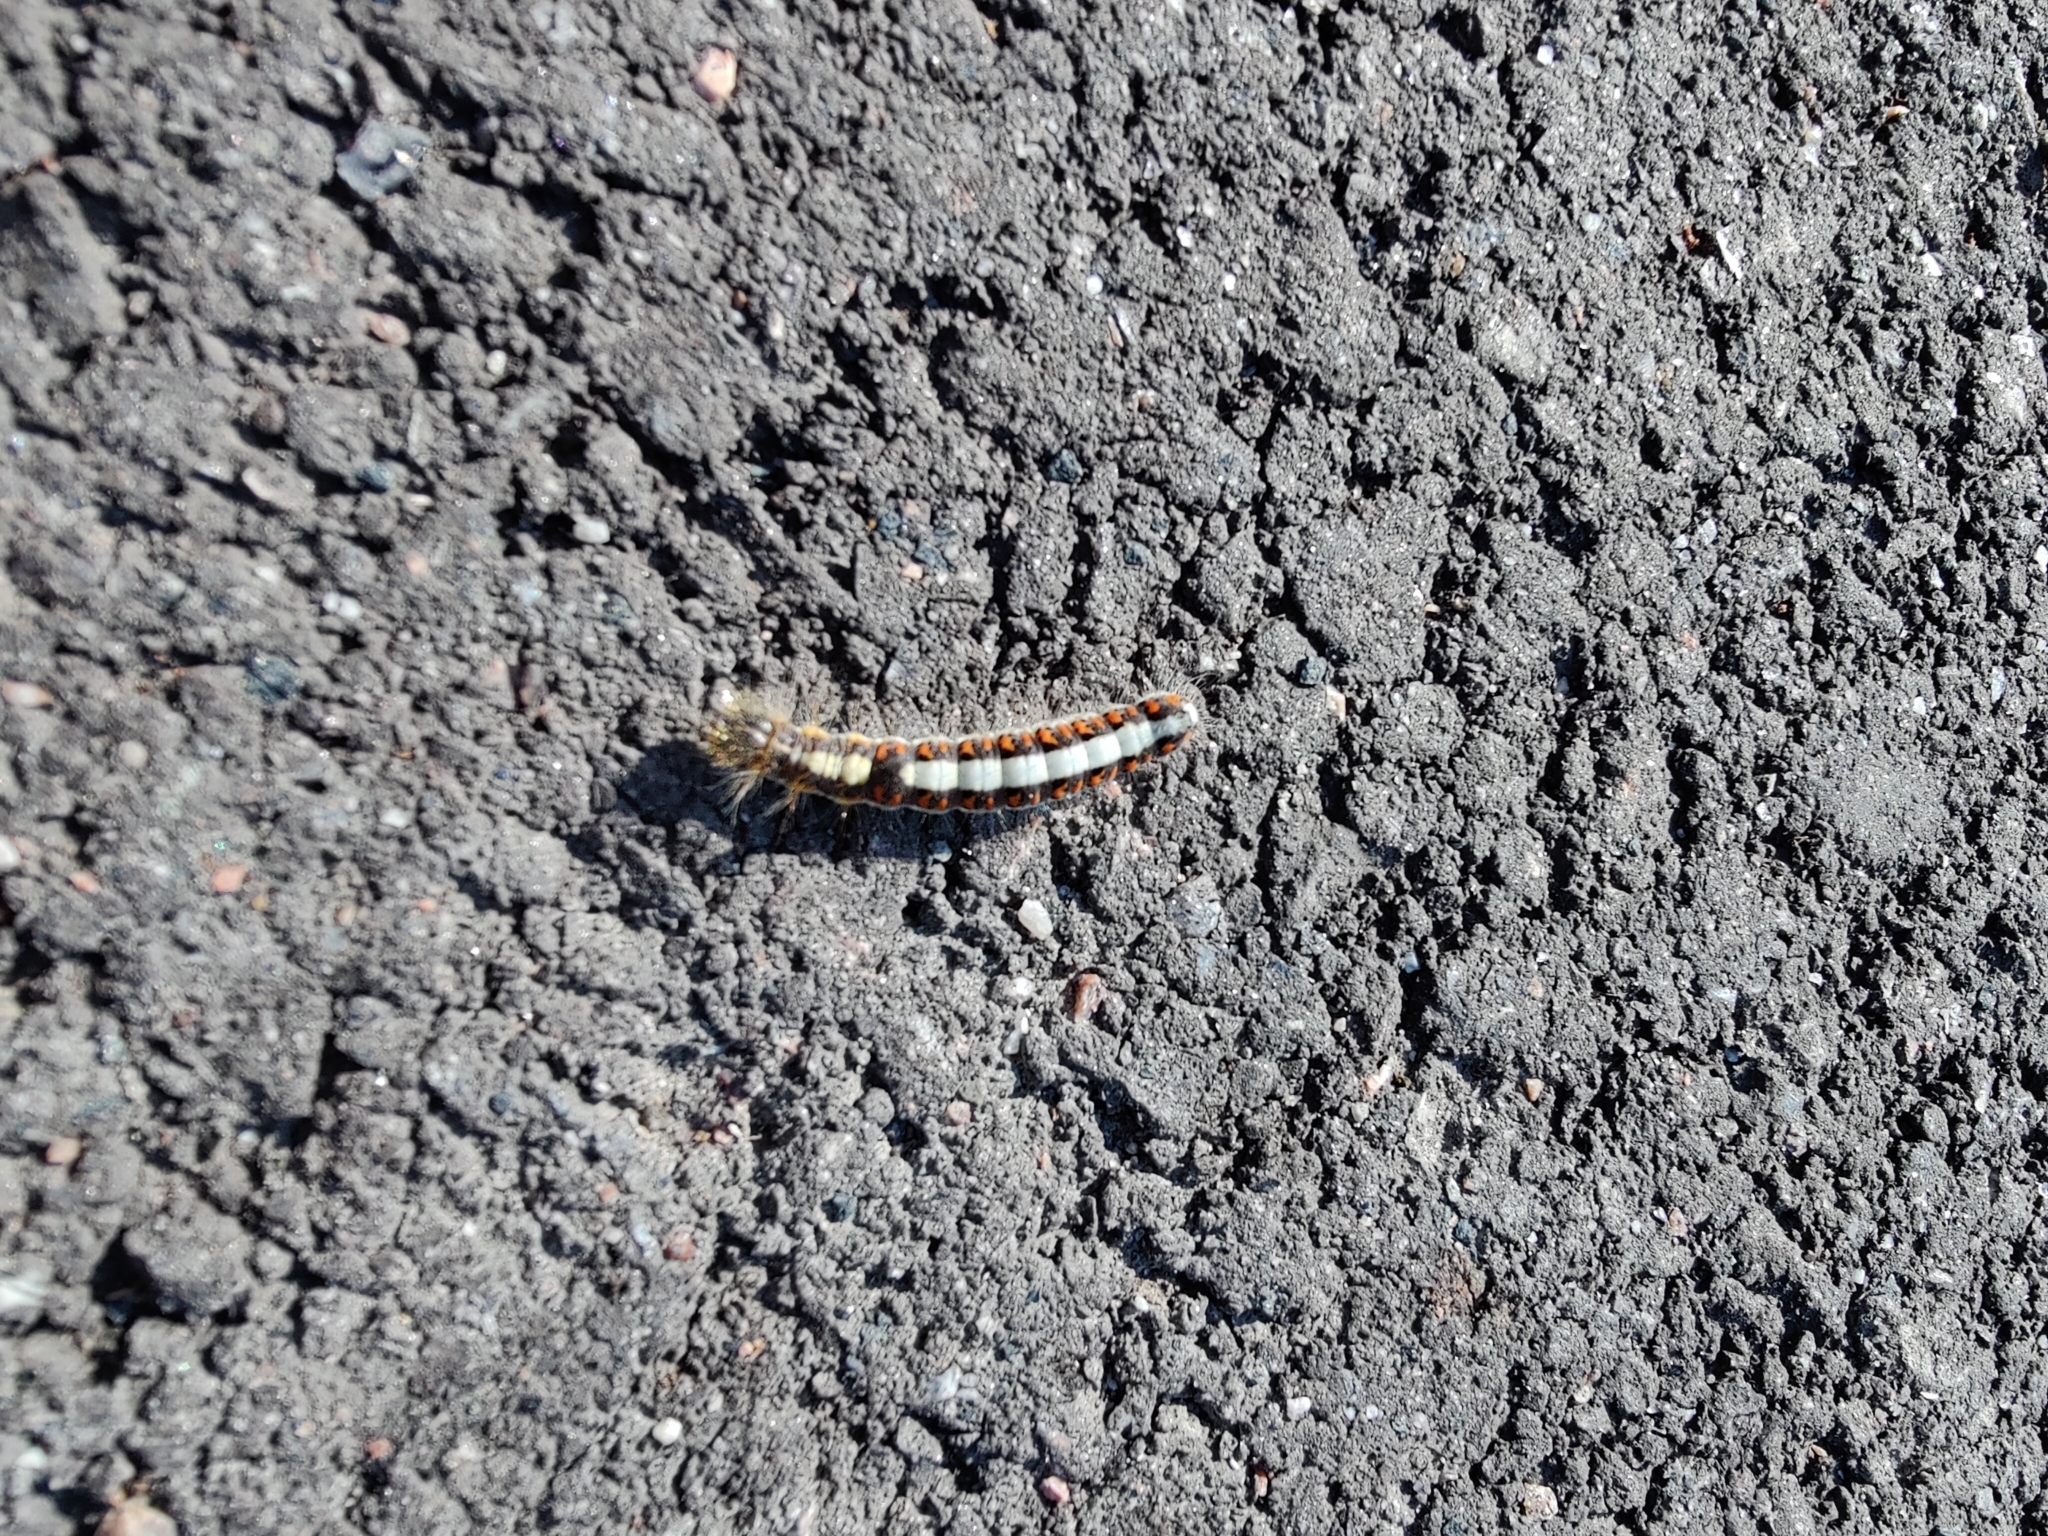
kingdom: Animalia
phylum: Arthropoda
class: Insecta
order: Lepidoptera
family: Noctuidae
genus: Acronicta
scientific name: Acronicta psi
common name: Grey dagger
